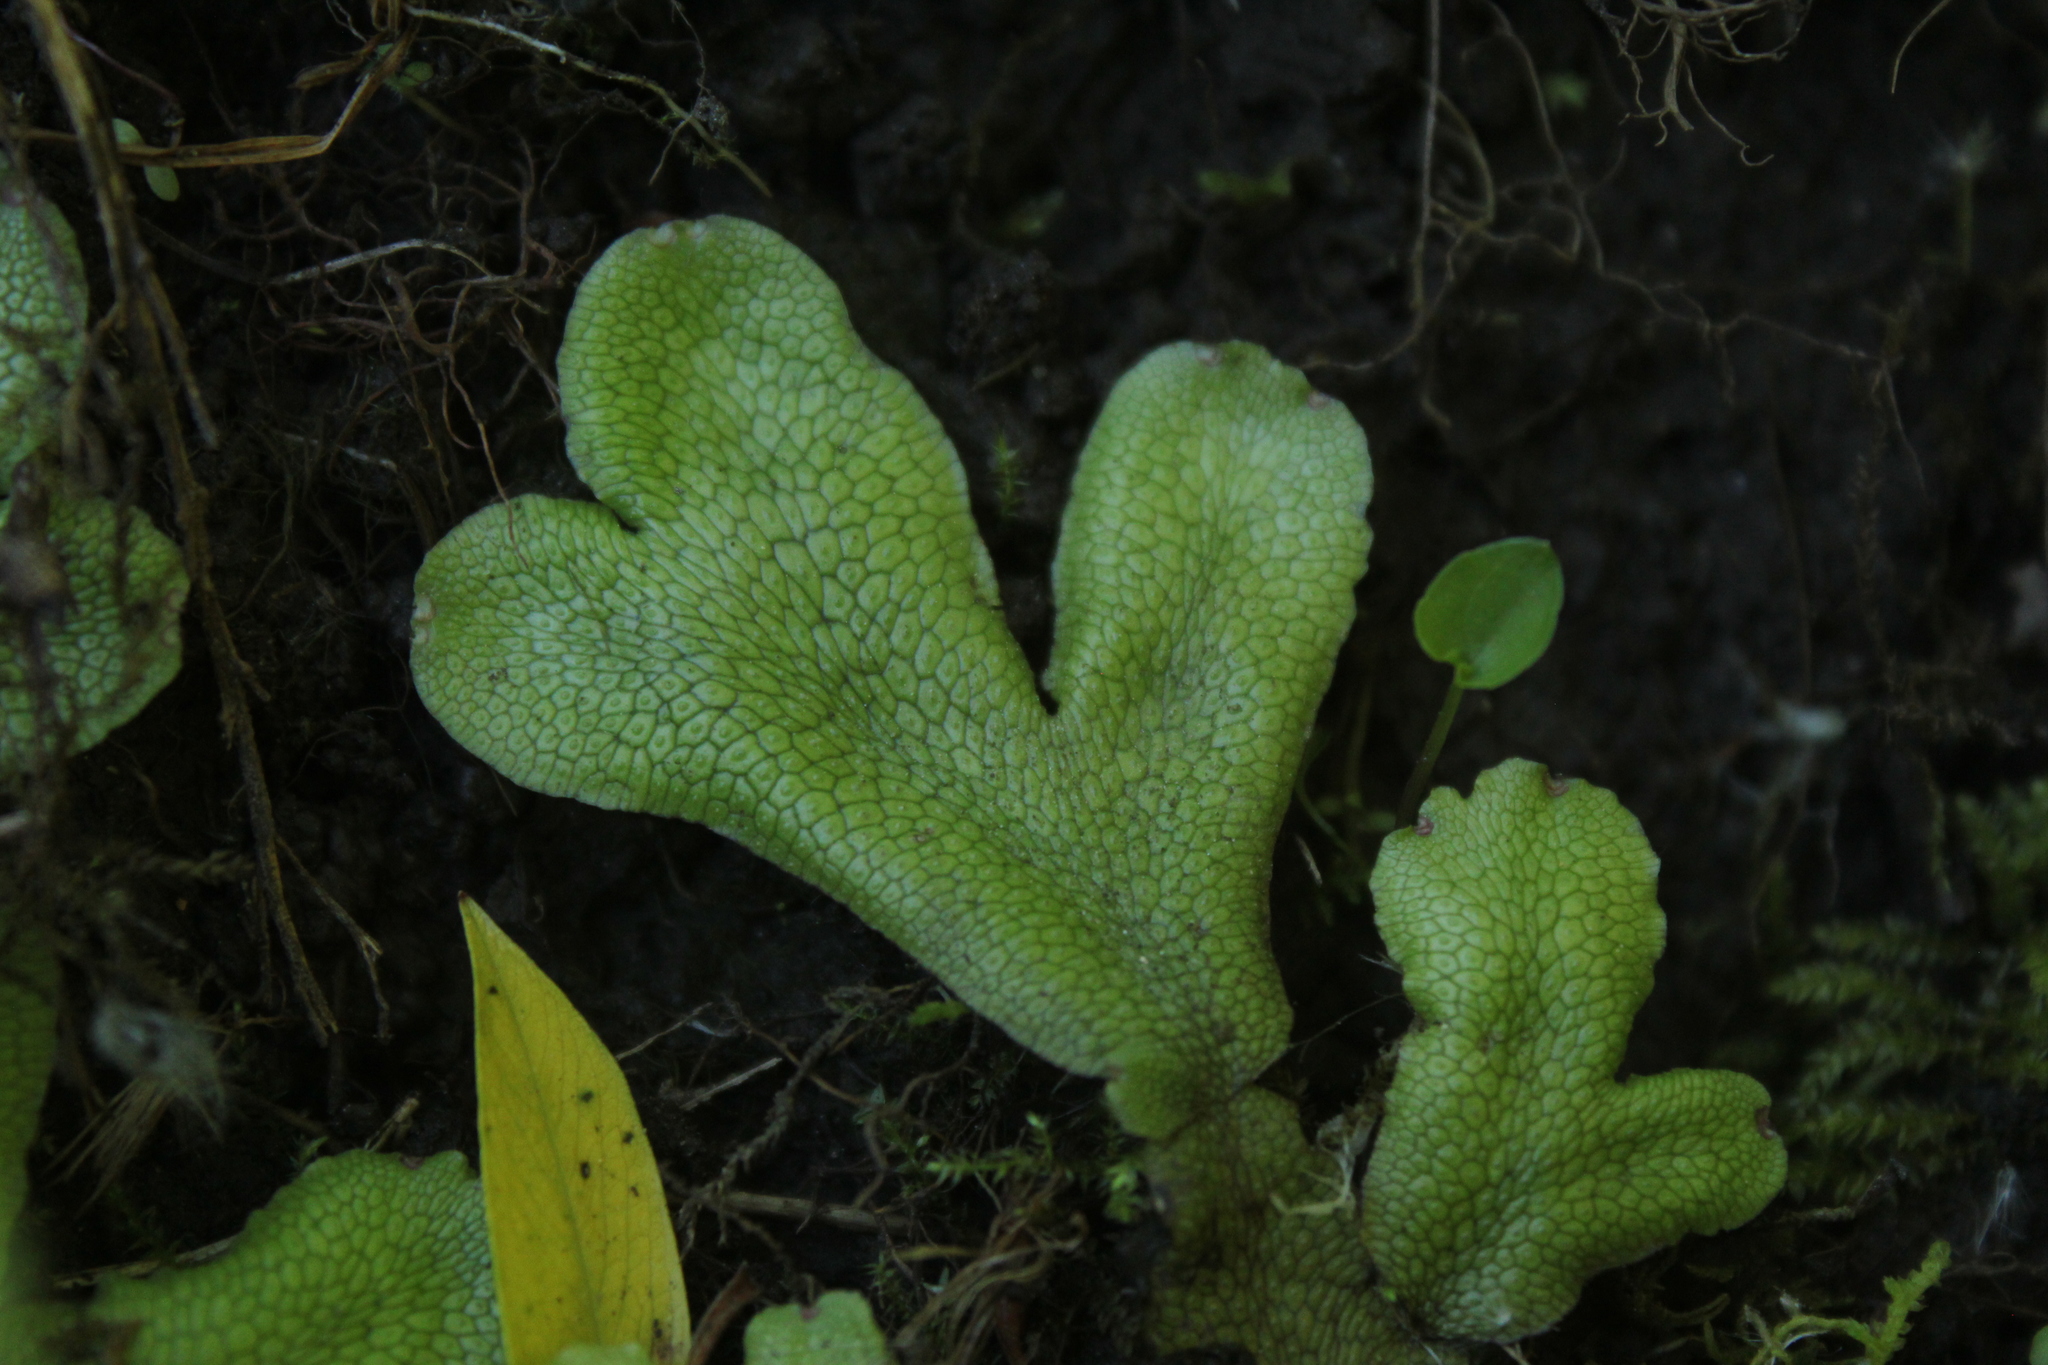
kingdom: Plantae
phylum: Marchantiophyta
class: Marchantiopsida
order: Marchantiales
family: Conocephalaceae
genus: Conocephalum
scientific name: Conocephalum salebrosum
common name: Cat-tongue liverwort
